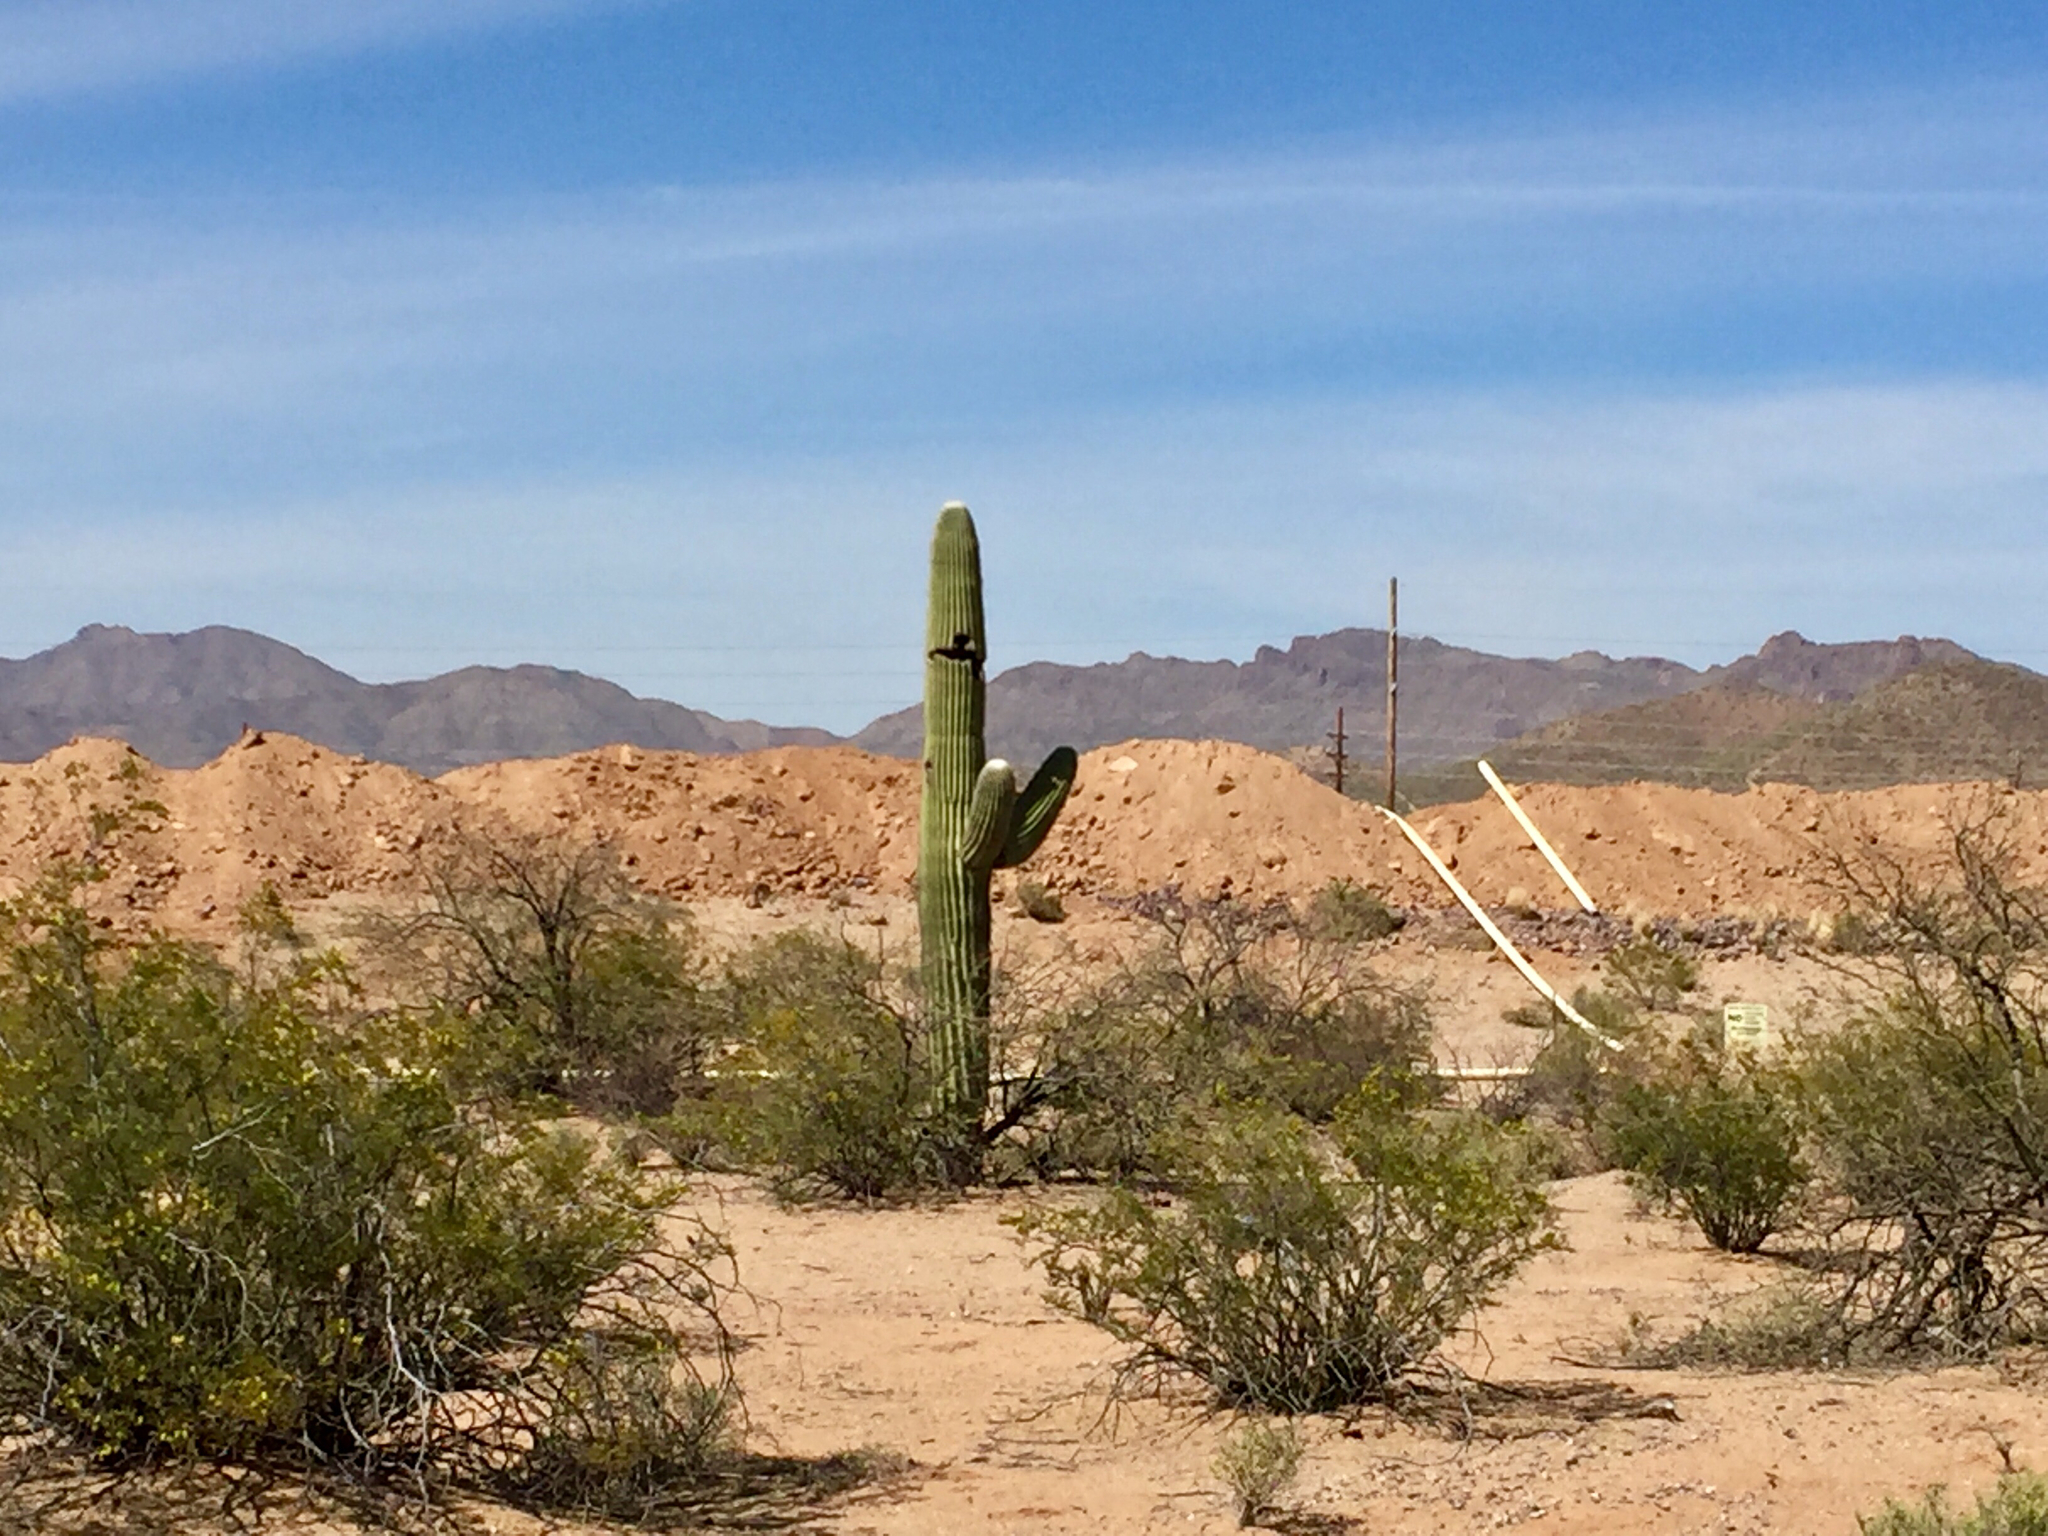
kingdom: Plantae
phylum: Tracheophyta
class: Magnoliopsida
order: Zygophyllales
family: Zygophyllaceae
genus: Larrea
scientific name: Larrea tridentata
